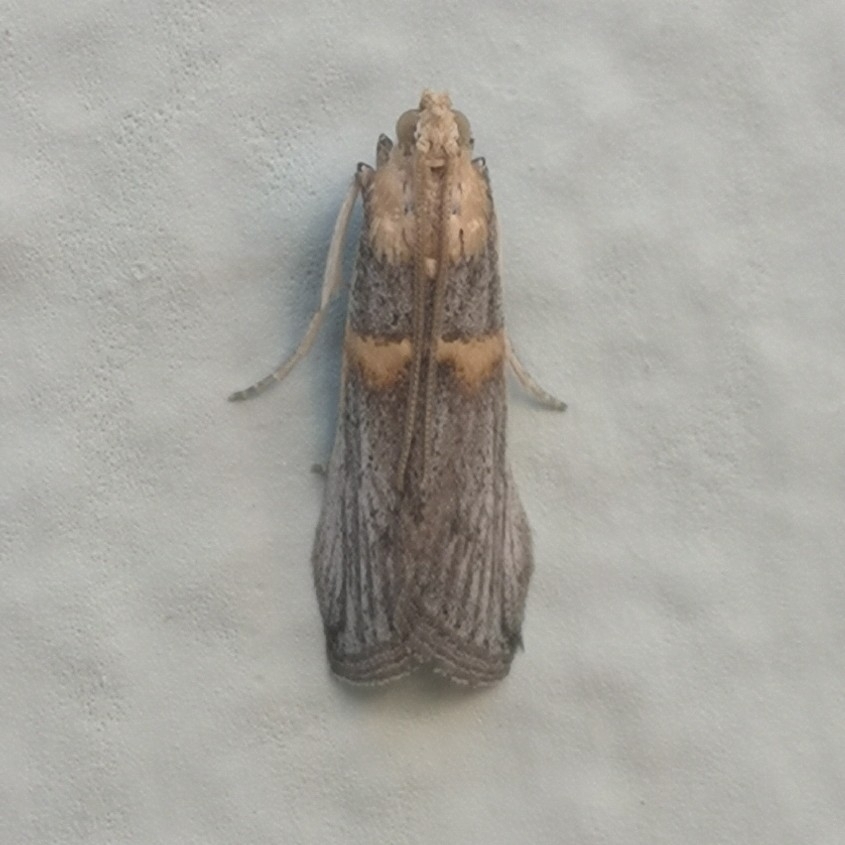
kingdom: Animalia
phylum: Arthropoda
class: Insecta
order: Lepidoptera
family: Pyralidae
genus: Oxybia
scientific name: Oxybia transversella
